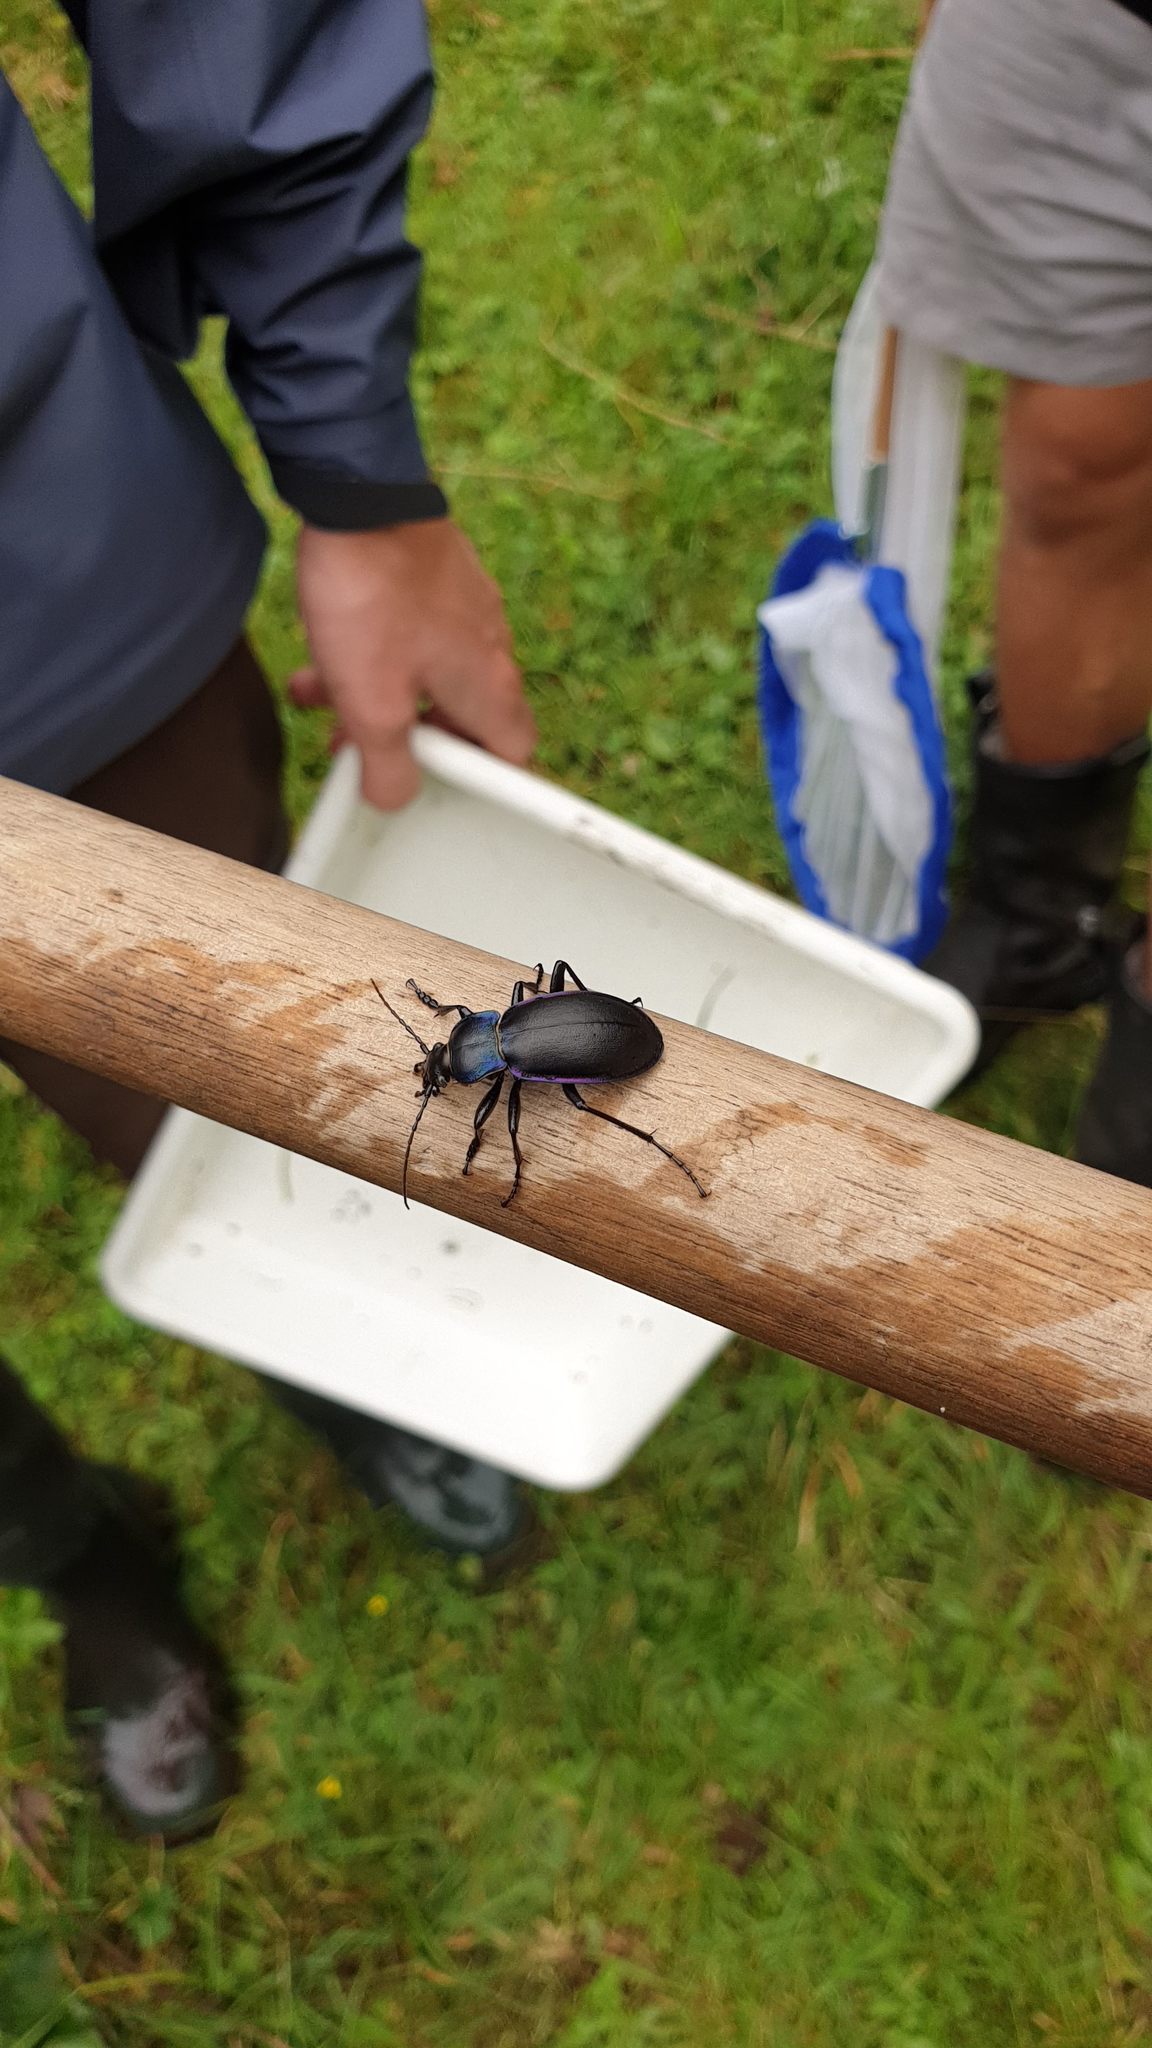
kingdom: Animalia
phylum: Arthropoda
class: Insecta
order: Coleoptera
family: Carabidae
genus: Carabus
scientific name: Carabus violaceus
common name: Violet ground beetle
